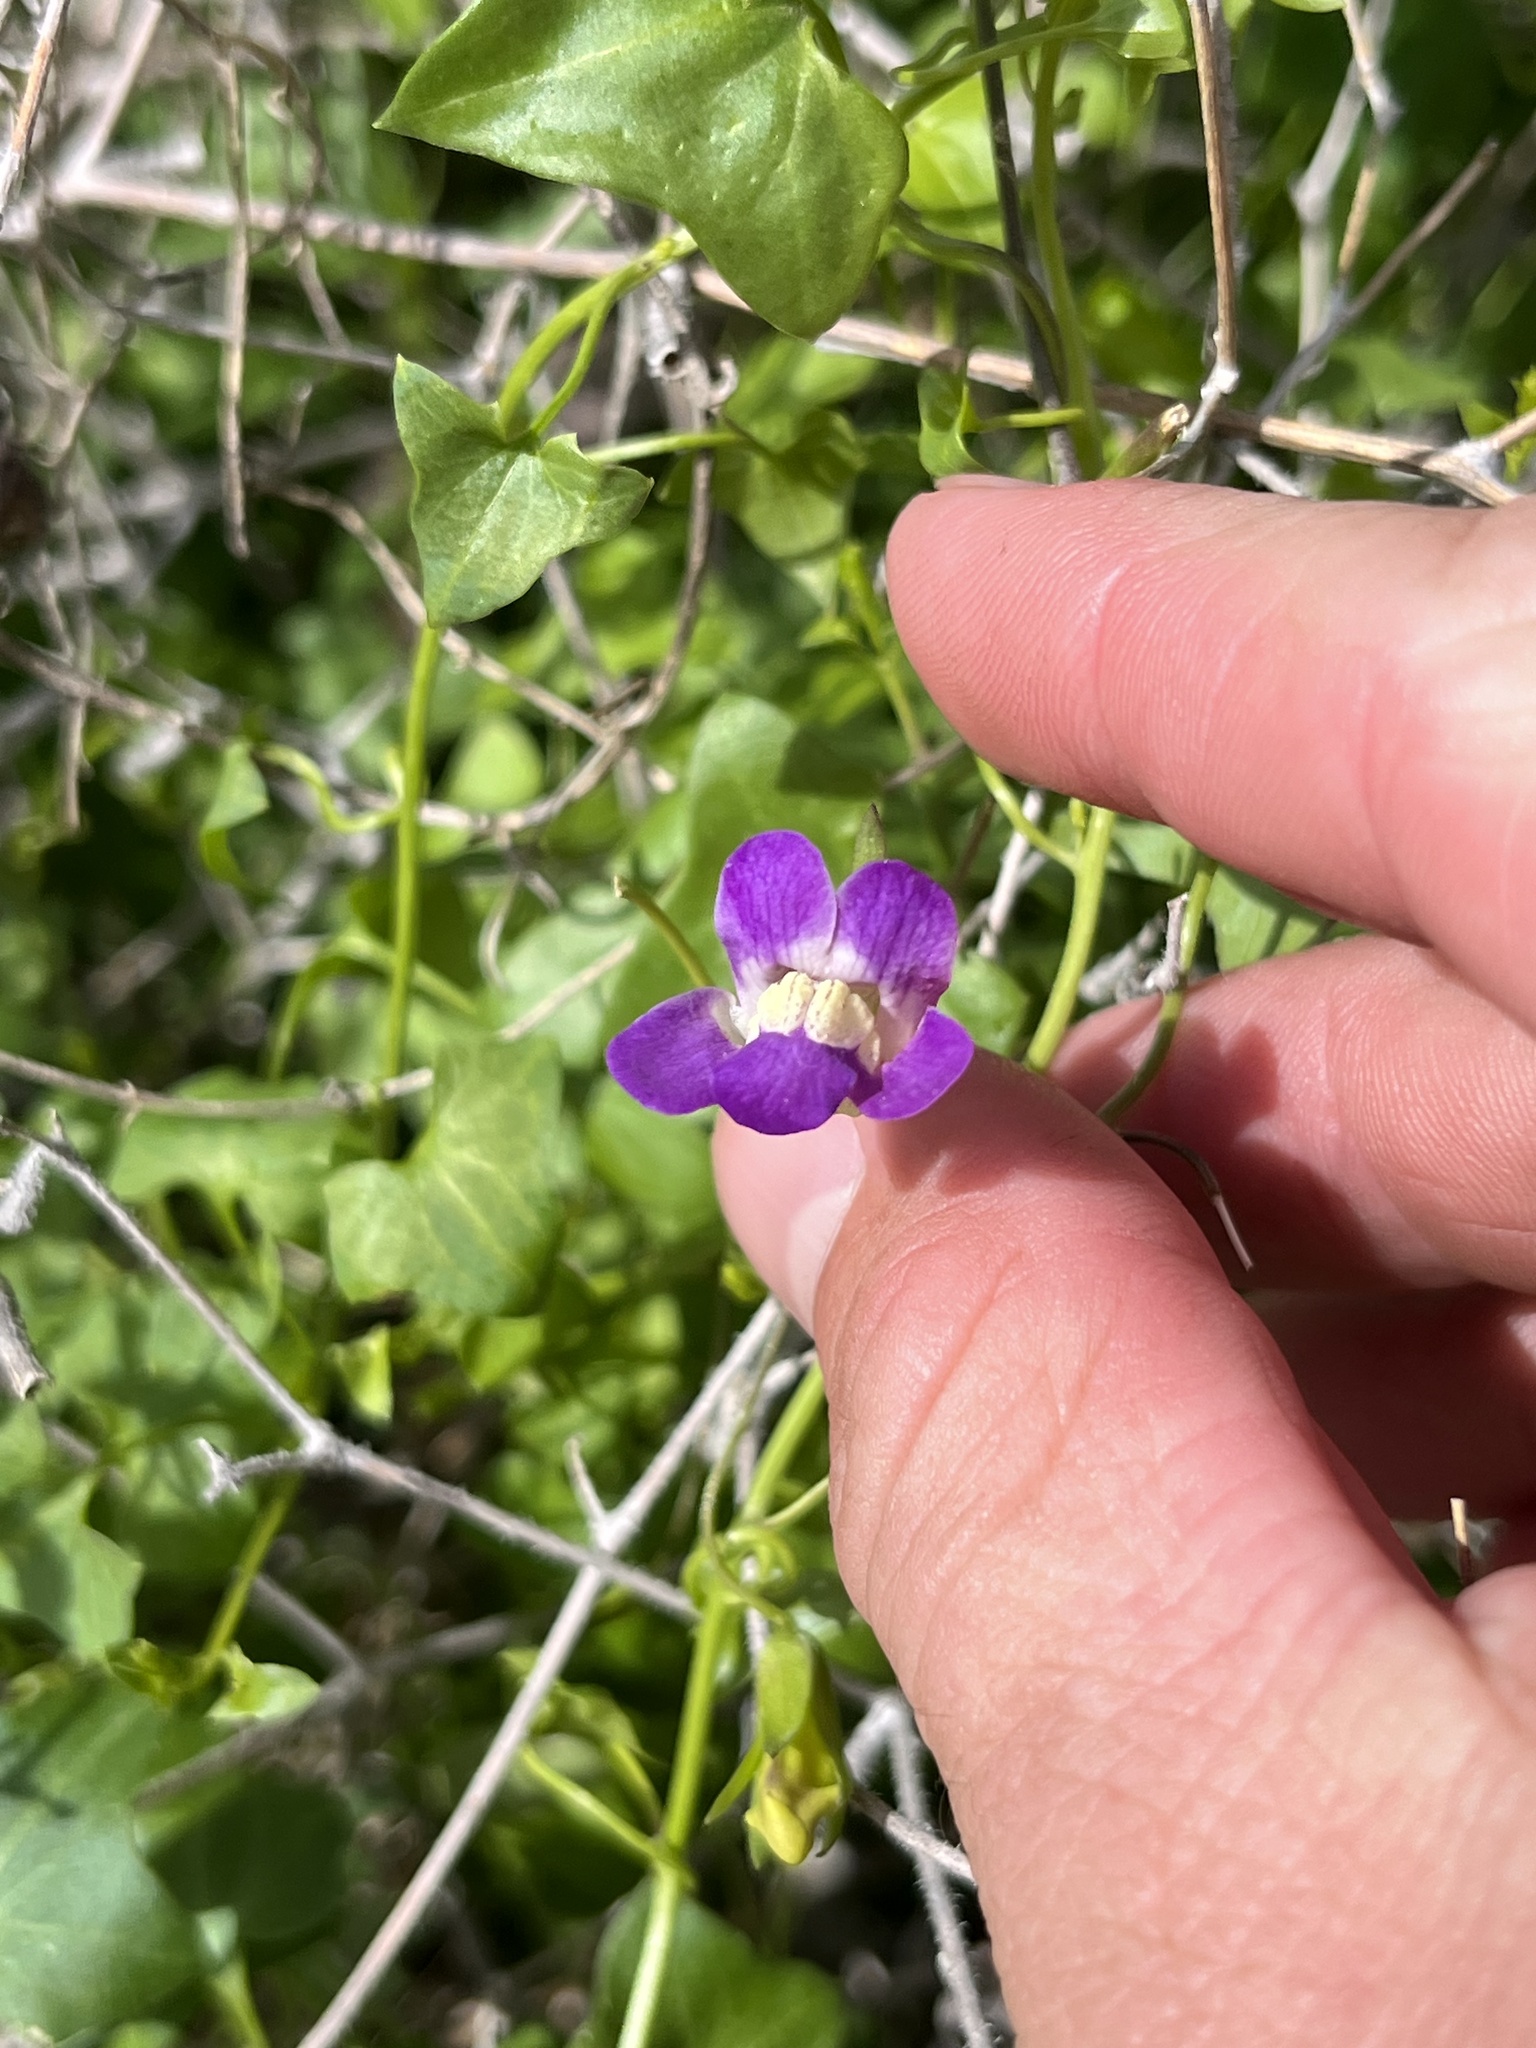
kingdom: Plantae
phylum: Tracheophyta
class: Magnoliopsida
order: Lamiales
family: Plantaginaceae
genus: Maurandella
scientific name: Maurandella antirrhiniflora
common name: Violet twining-snapdragon
